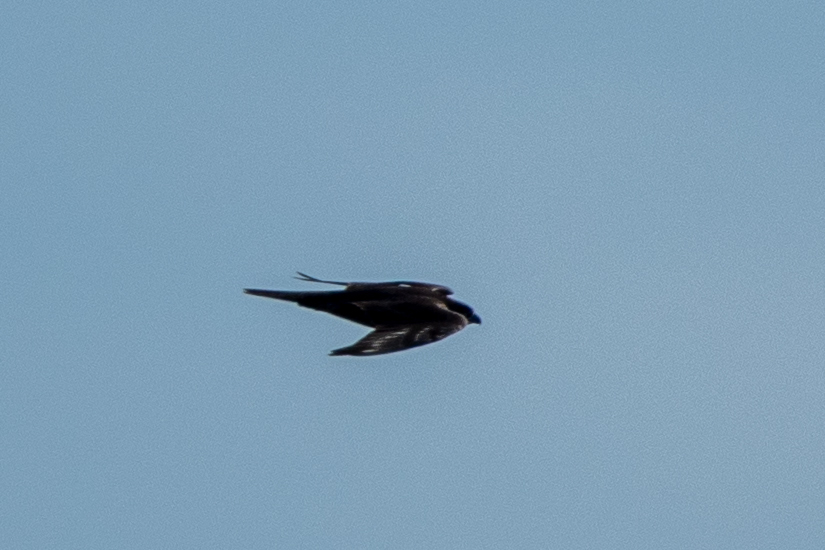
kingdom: Animalia
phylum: Chordata
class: Aves
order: Falconiformes
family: Falconidae
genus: Falco
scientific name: Falco peregrinus
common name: Peregrine falcon
